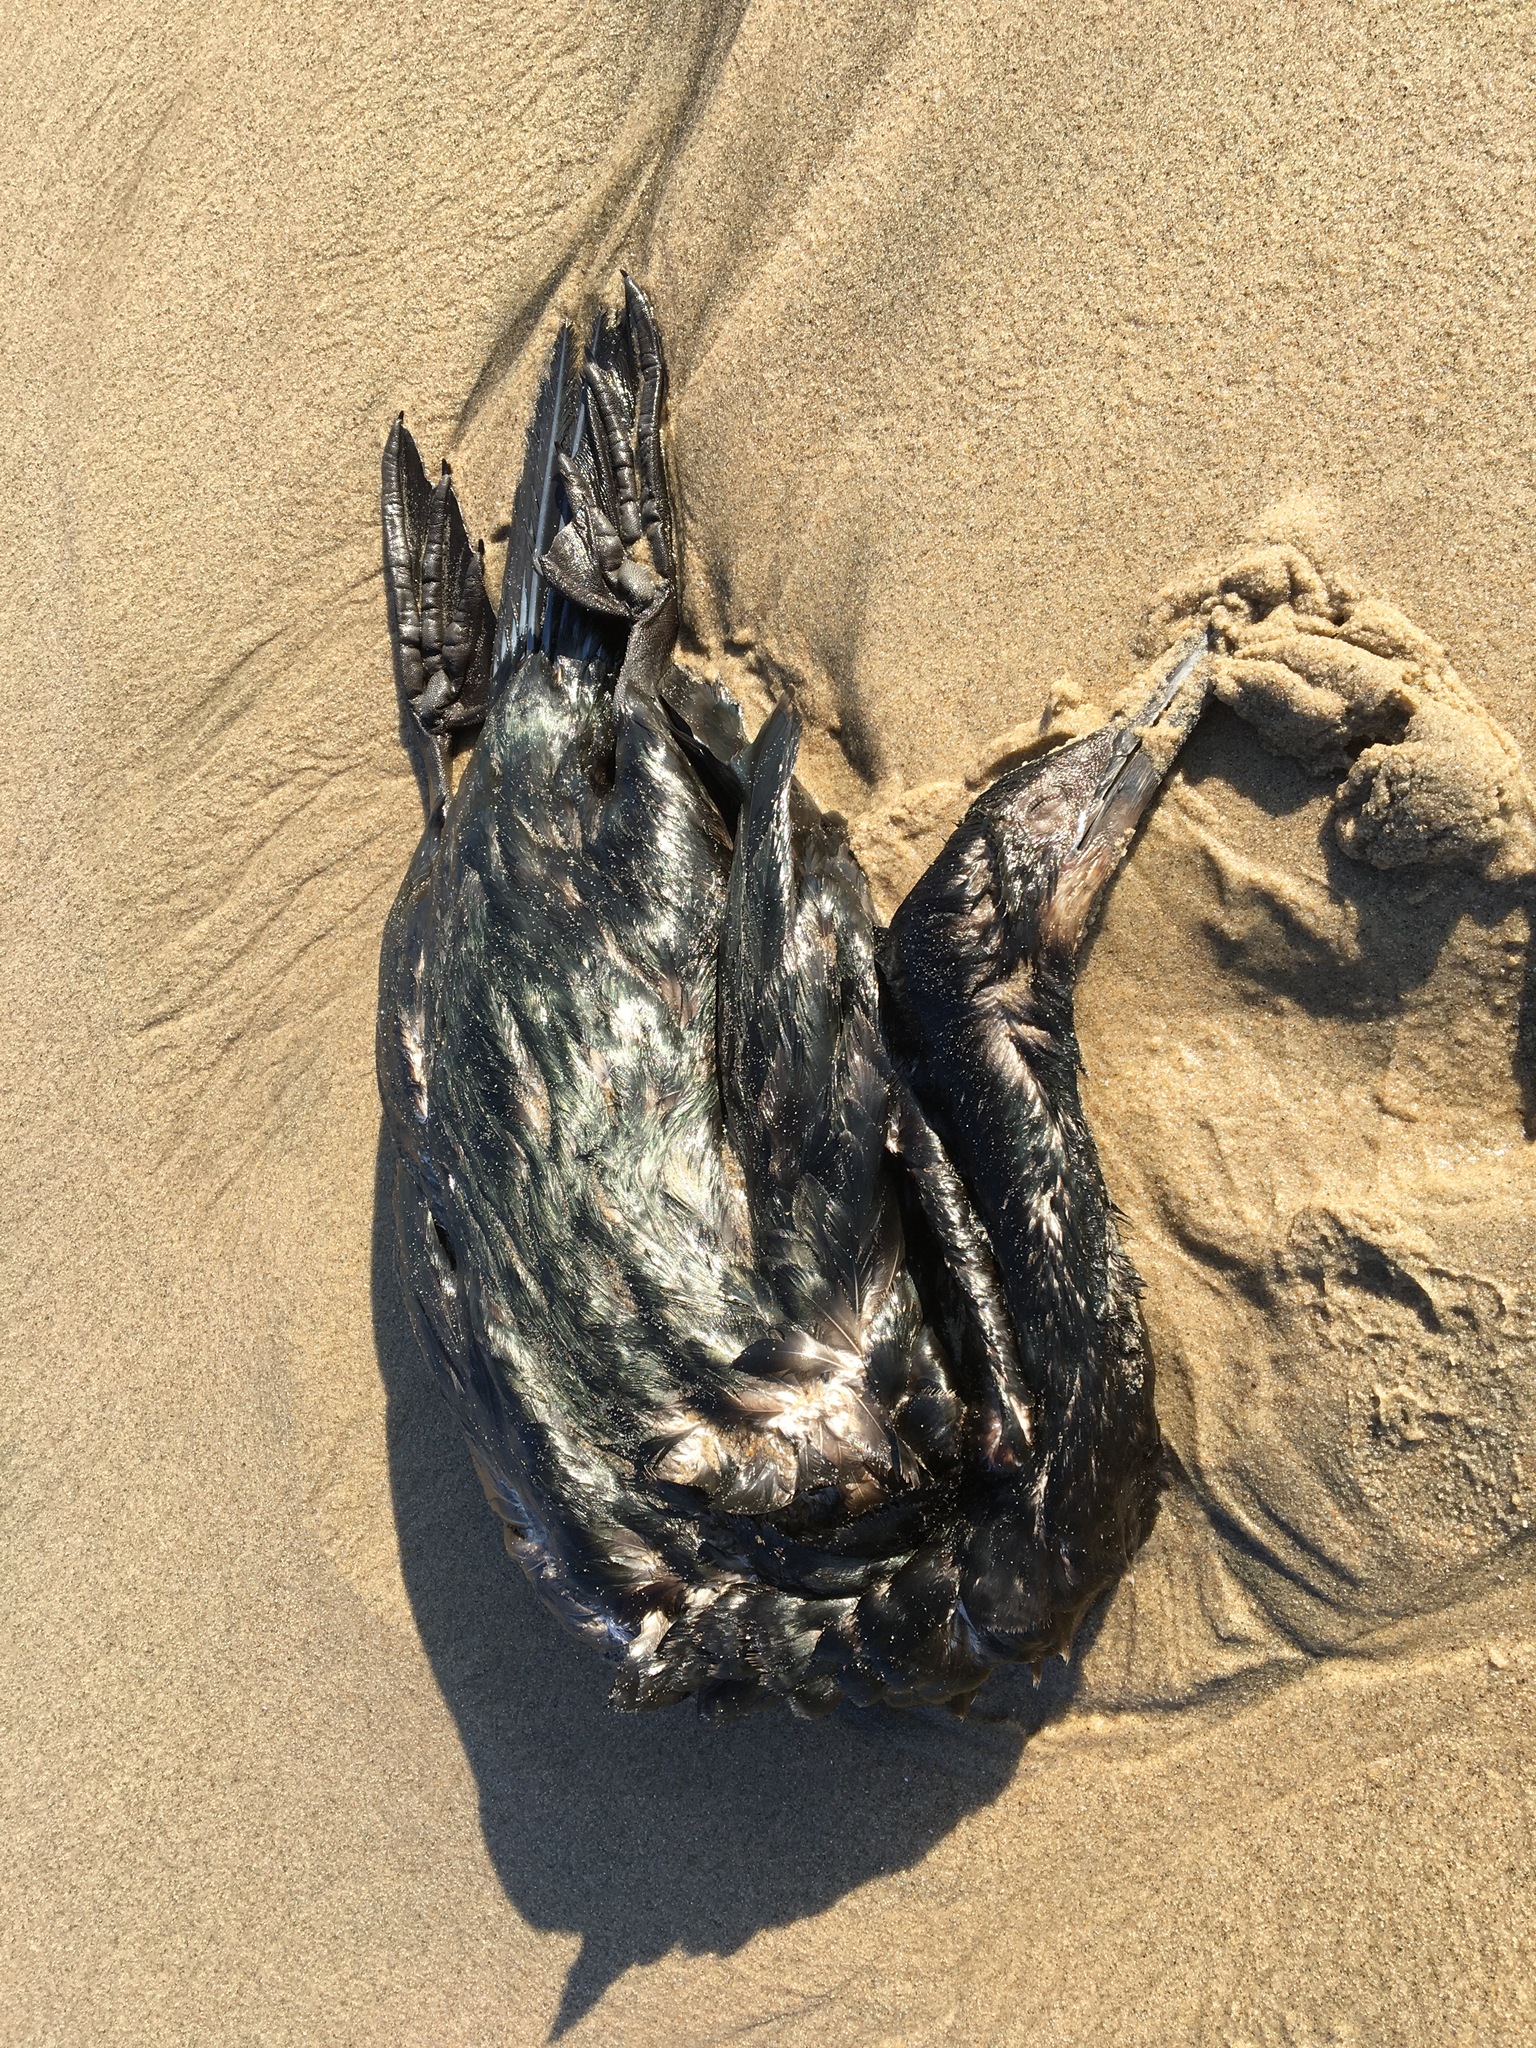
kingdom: Animalia
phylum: Chordata
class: Aves
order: Suliformes
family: Phalacrocoracidae
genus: Urile
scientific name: Urile penicillatus
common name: Brandt's cormorant
